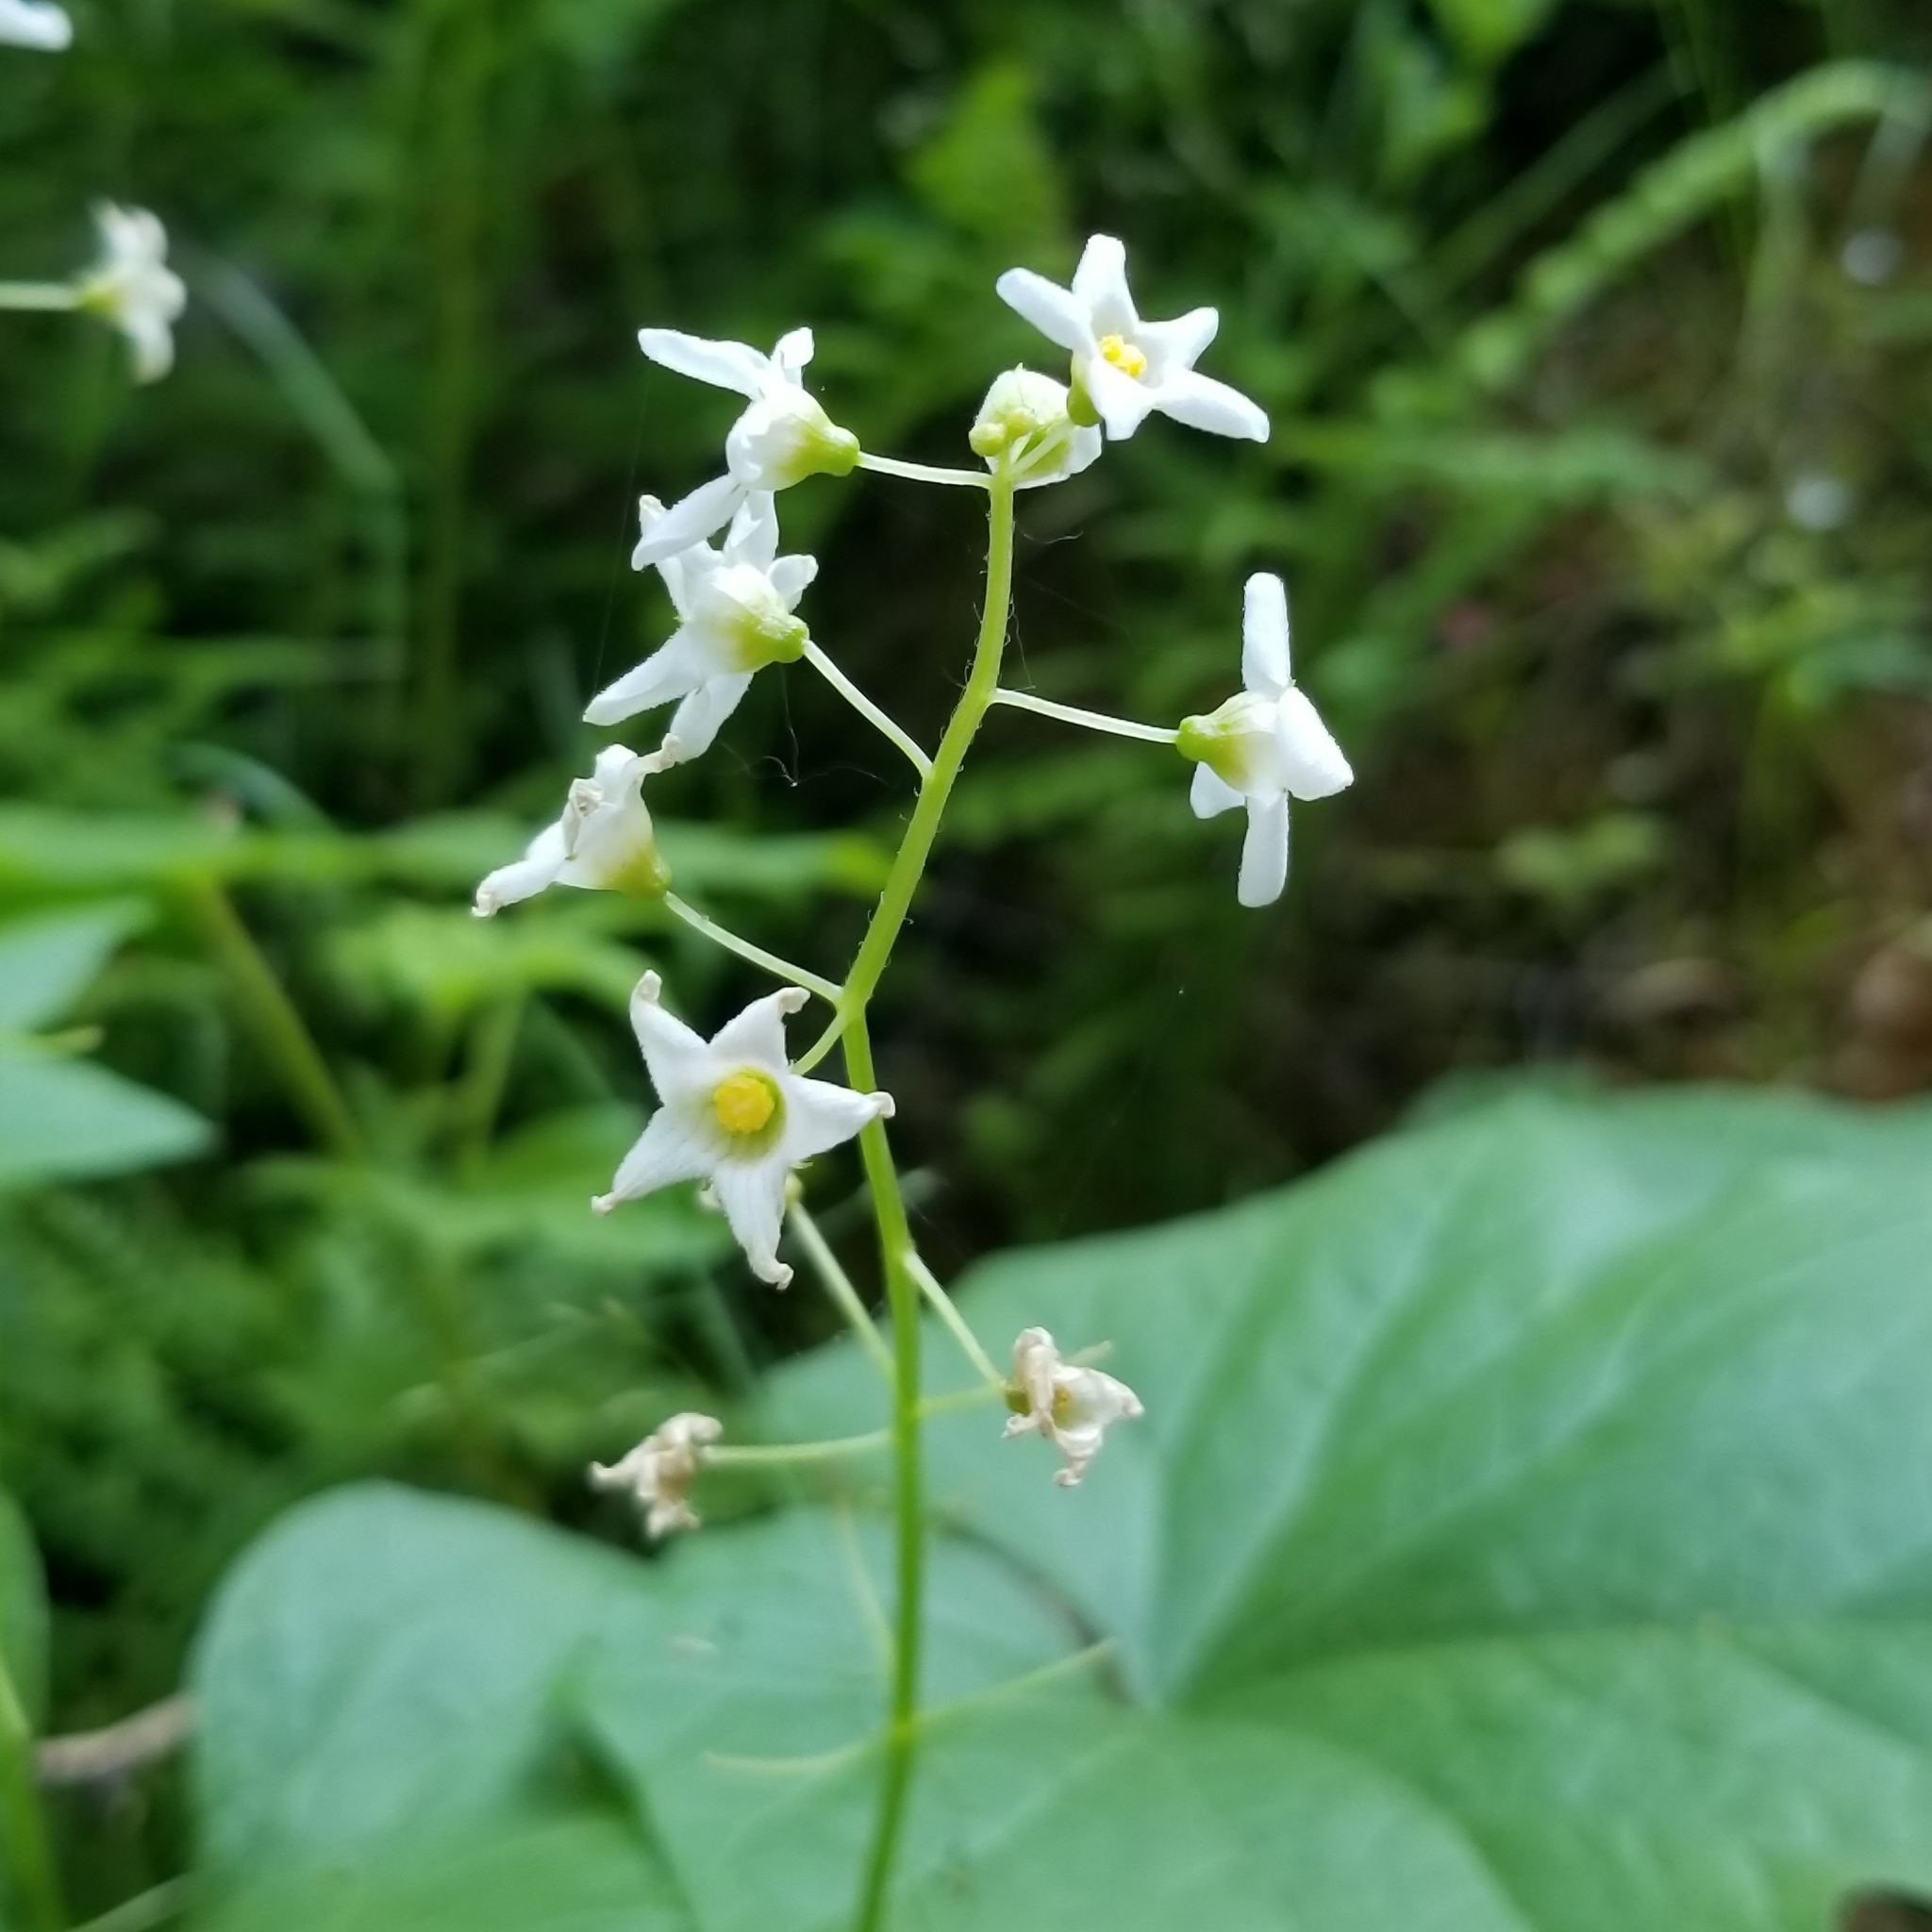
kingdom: Plantae
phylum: Tracheophyta
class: Magnoliopsida
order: Cucurbitales
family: Cucurbitaceae
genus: Marah
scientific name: Marah oregana
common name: Coastal manroot
